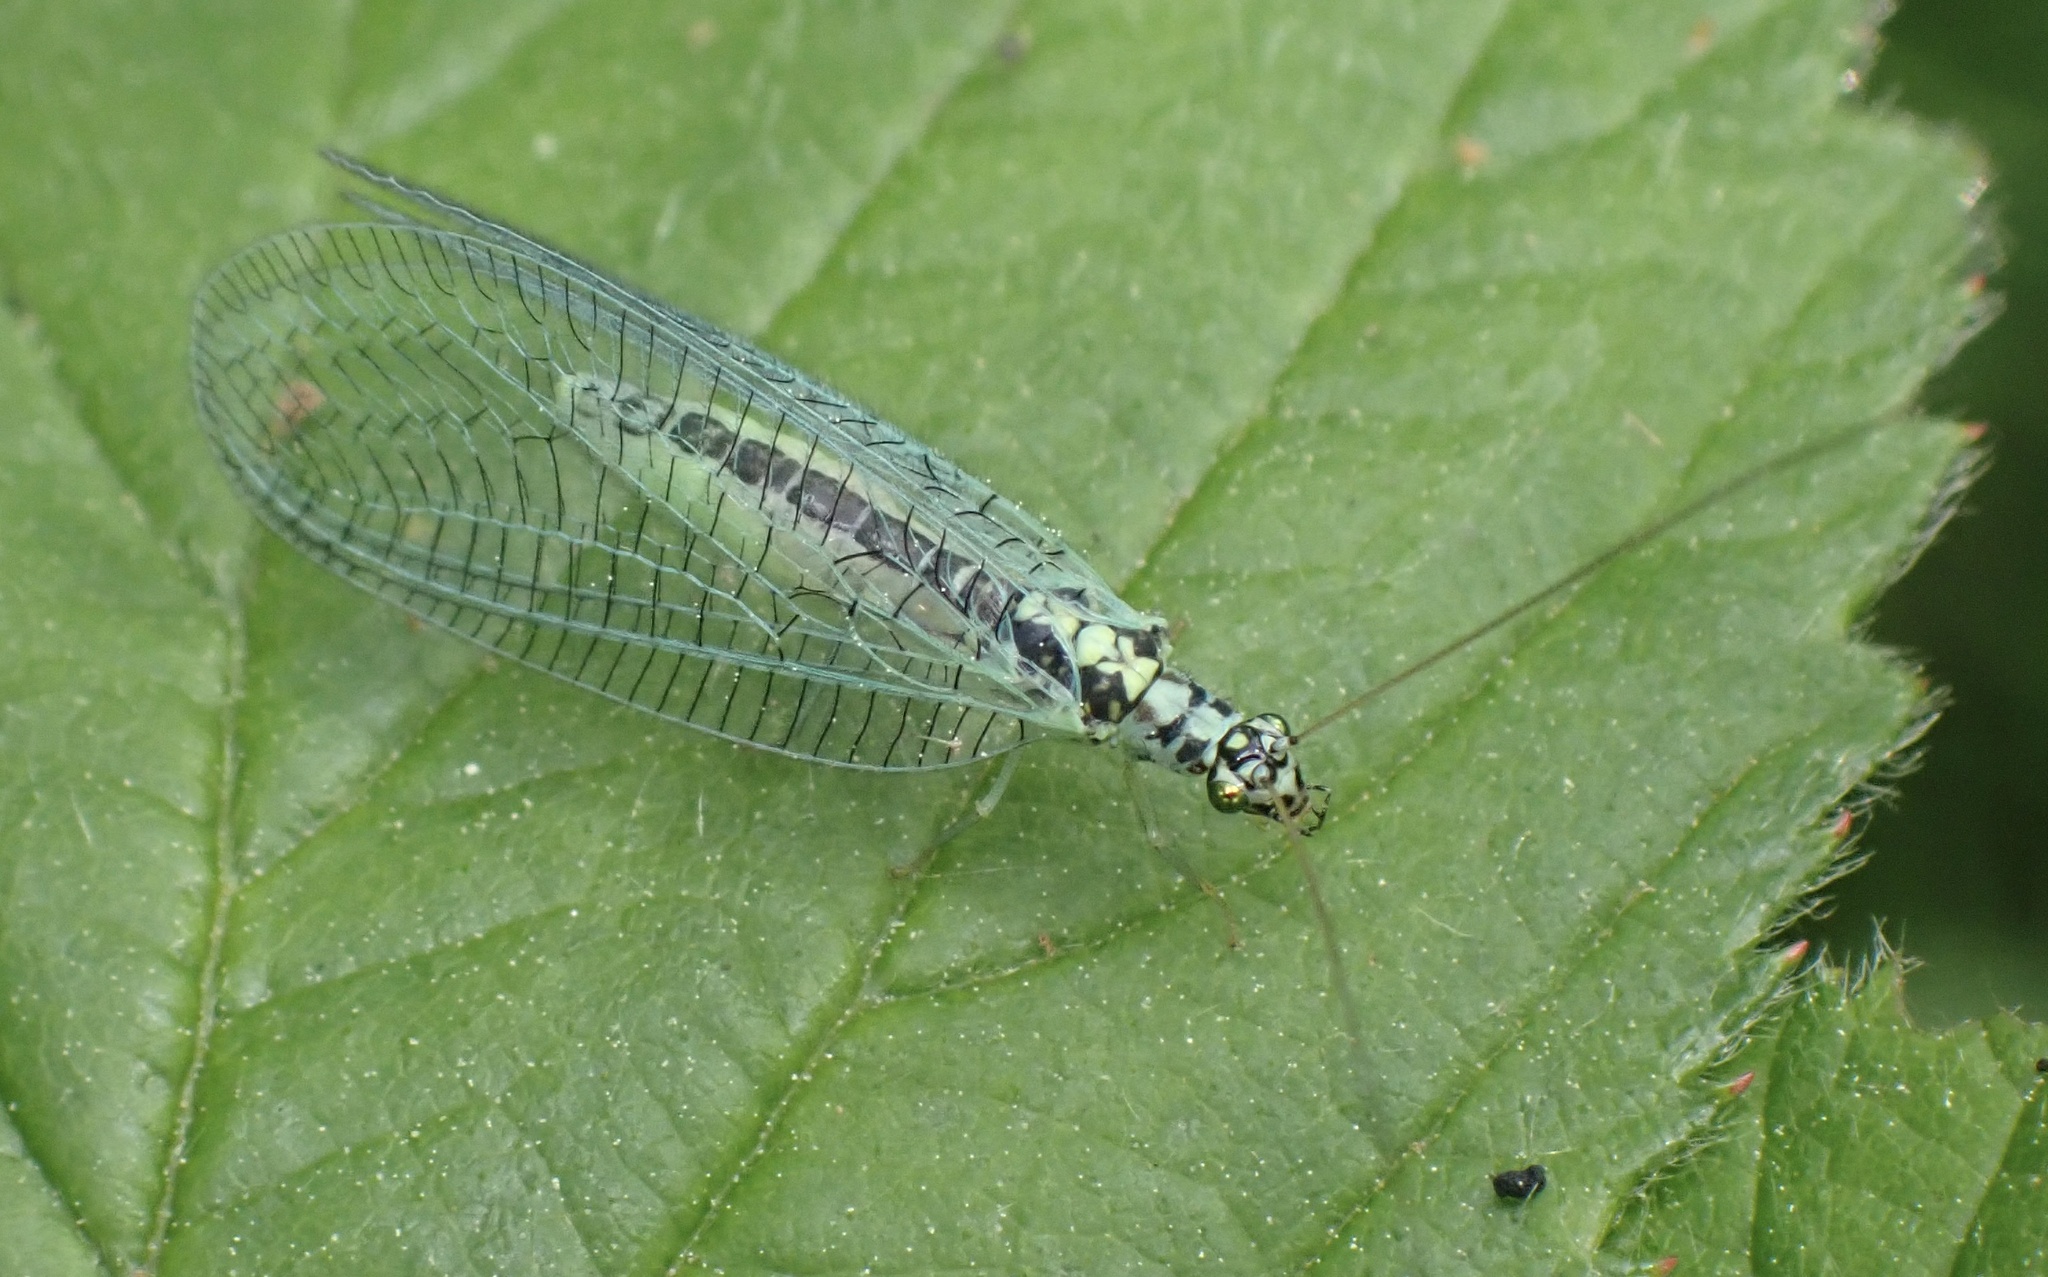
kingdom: Animalia
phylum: Arthropoda
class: Insecta
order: Neuroptera
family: Chrysopidae
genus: Chrysopa
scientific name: Chrysopa perla
